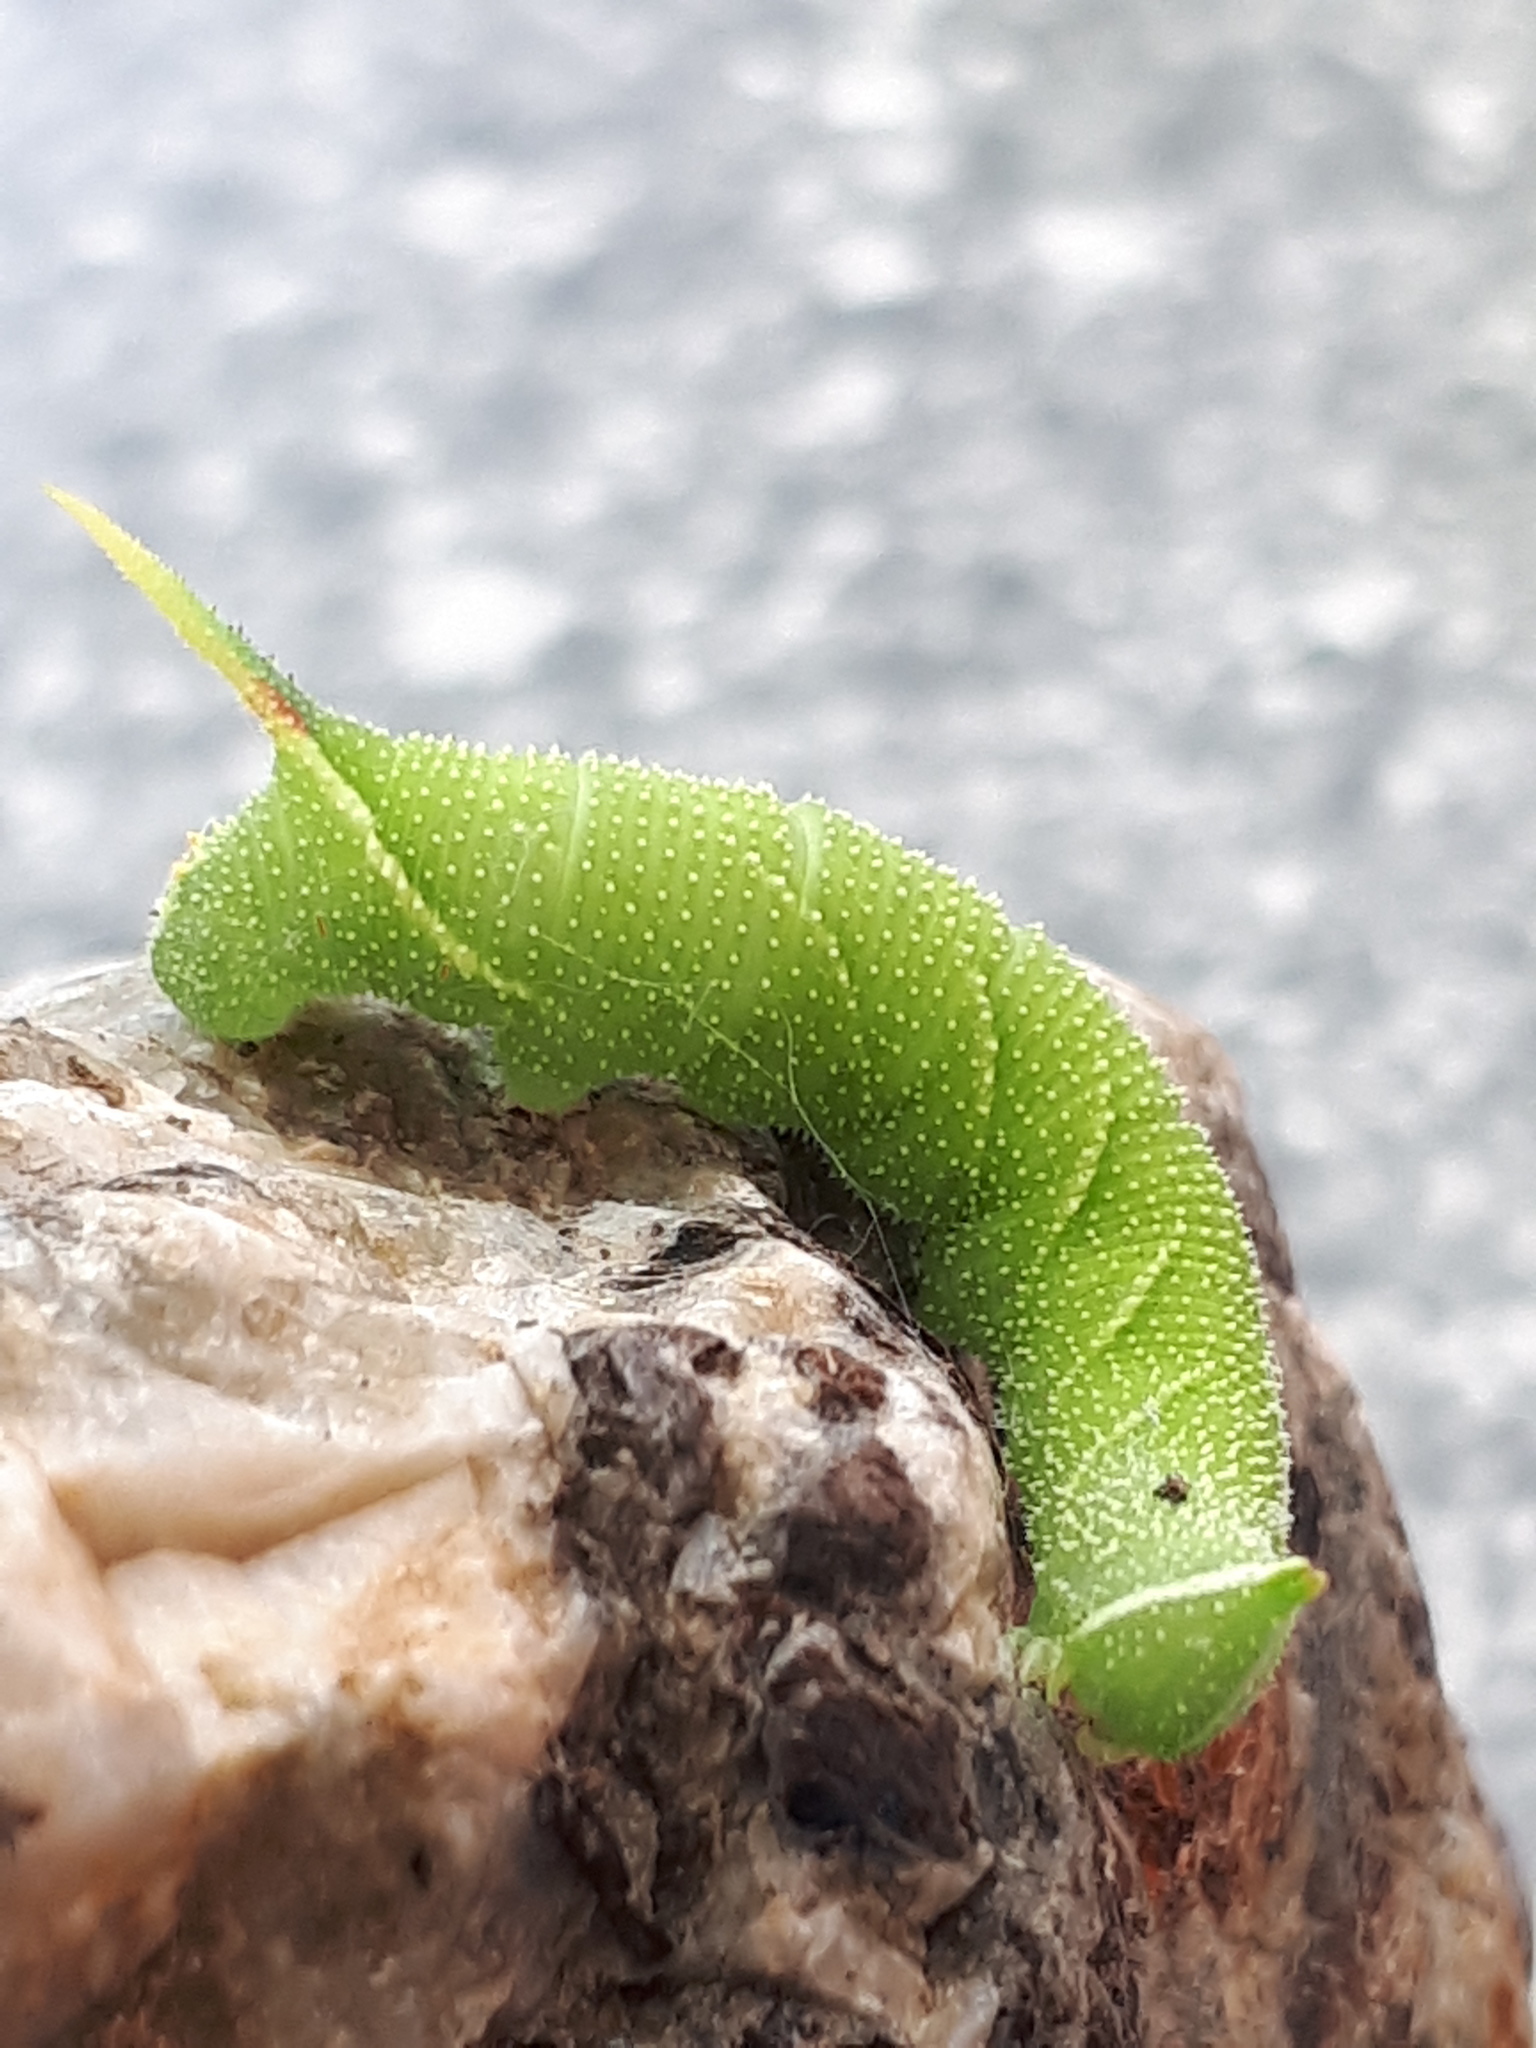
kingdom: Animalia
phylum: Arthropoda
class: Insecta
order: Lepidoptera
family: Sphingidae
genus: Mimas
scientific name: Mimas tiliae
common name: Lime hawk-moth
